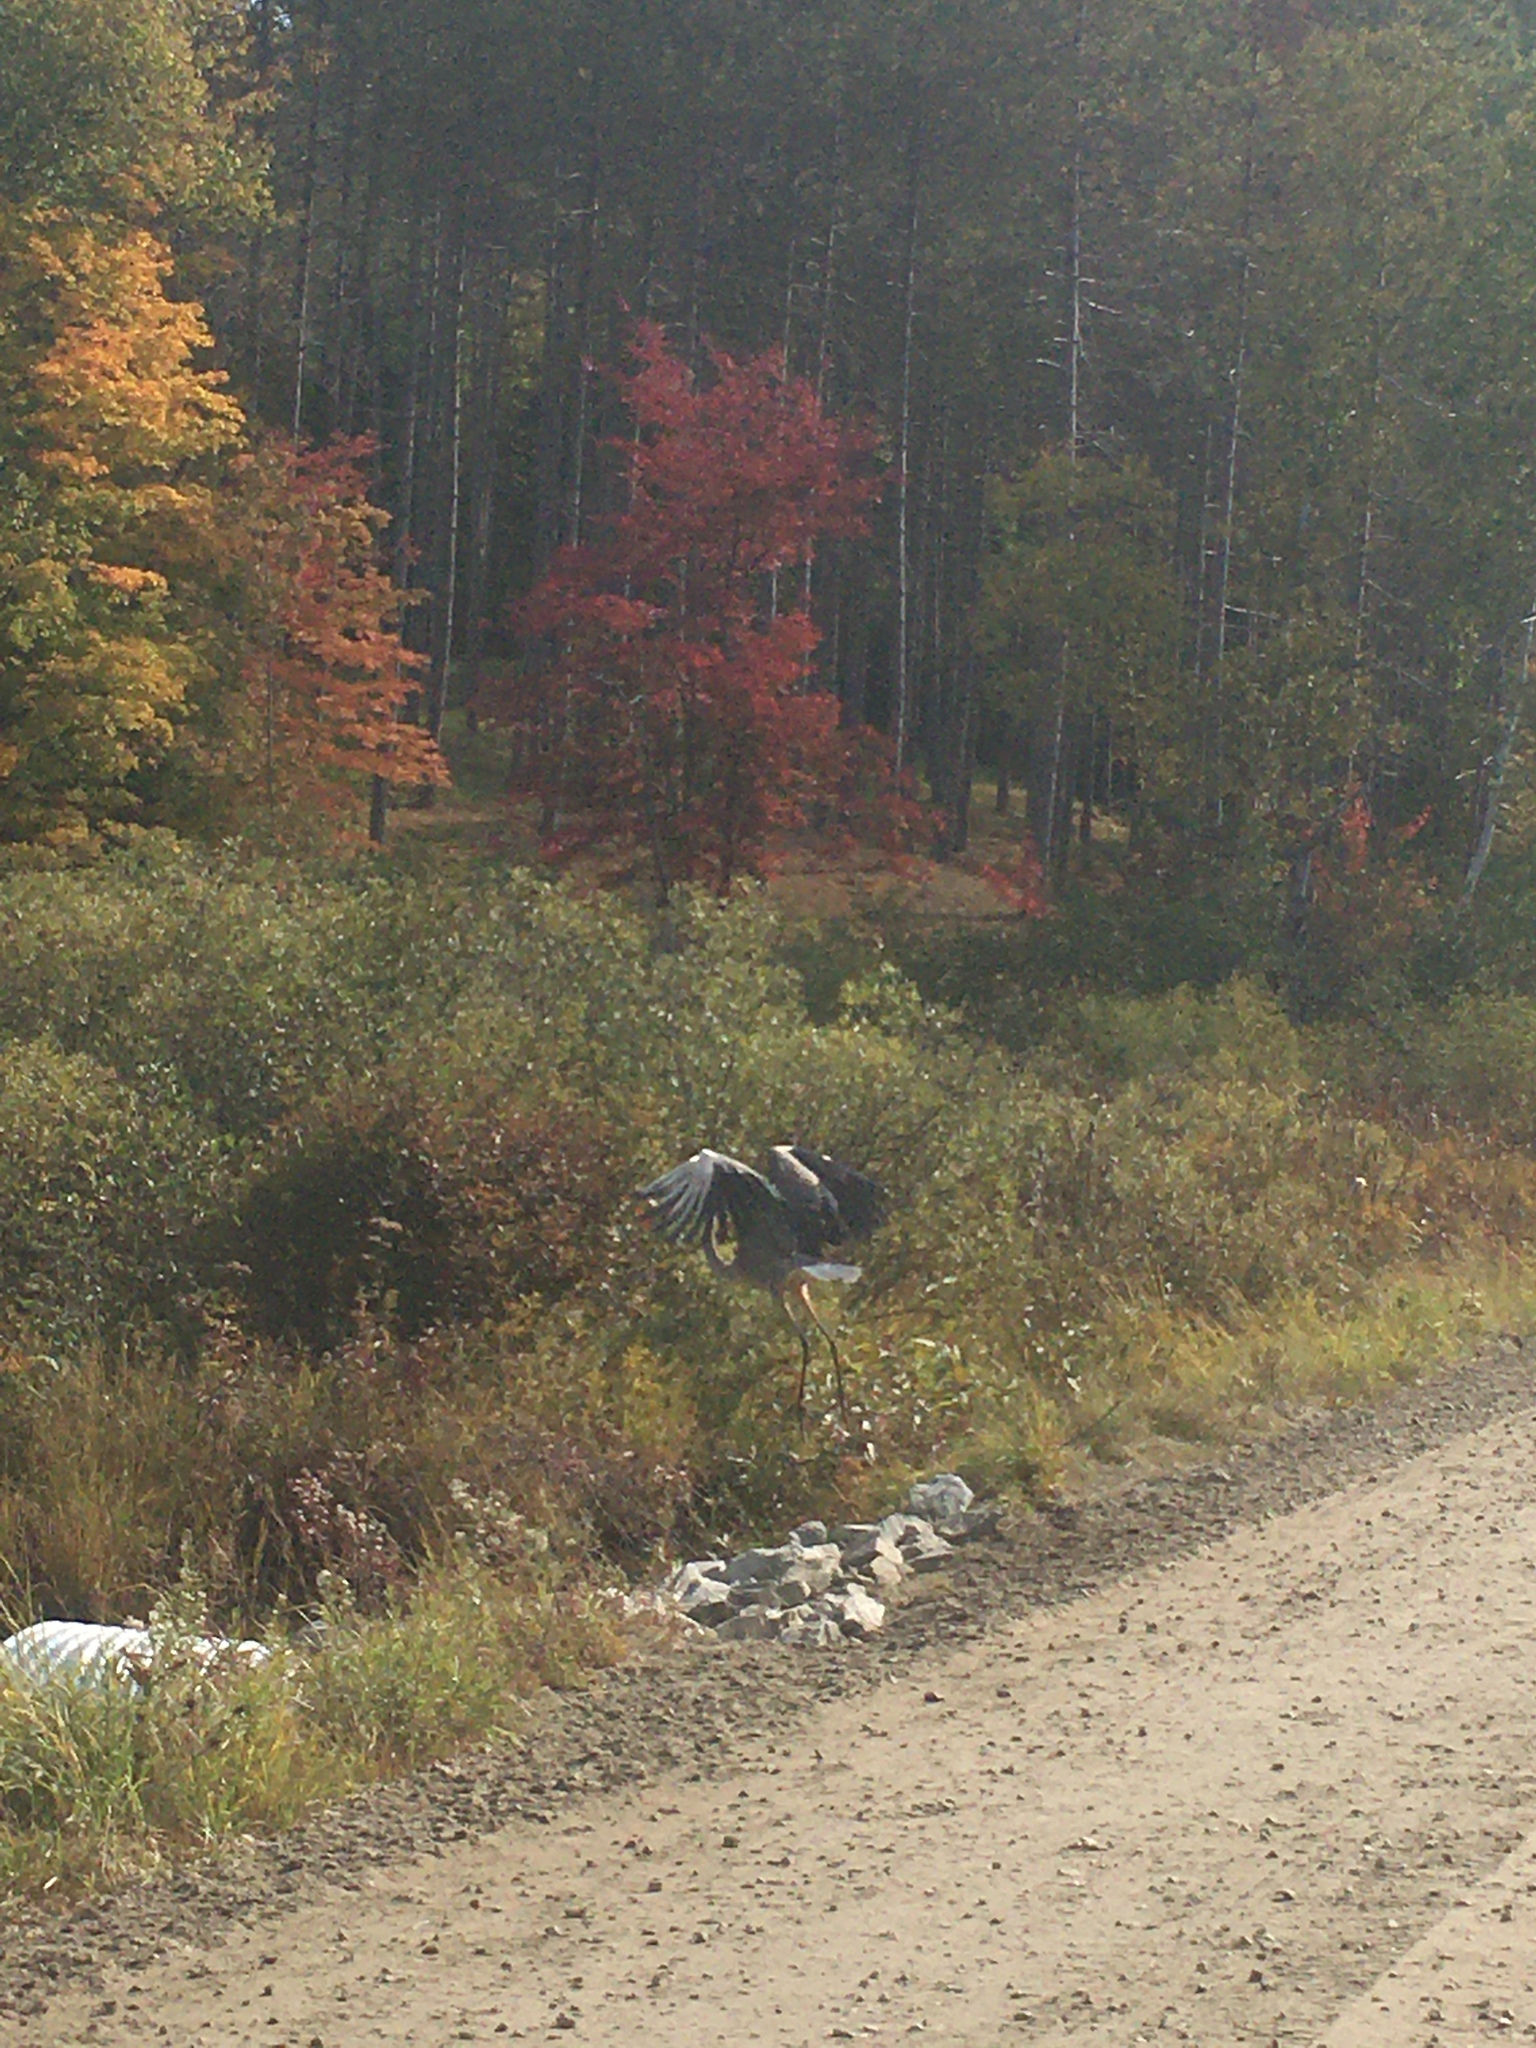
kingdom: Animalia
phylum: Chordata
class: Aves
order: Pelecaniformes
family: Ardeidae
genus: Ardea
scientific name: Ardea herodias
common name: Great blue heron
